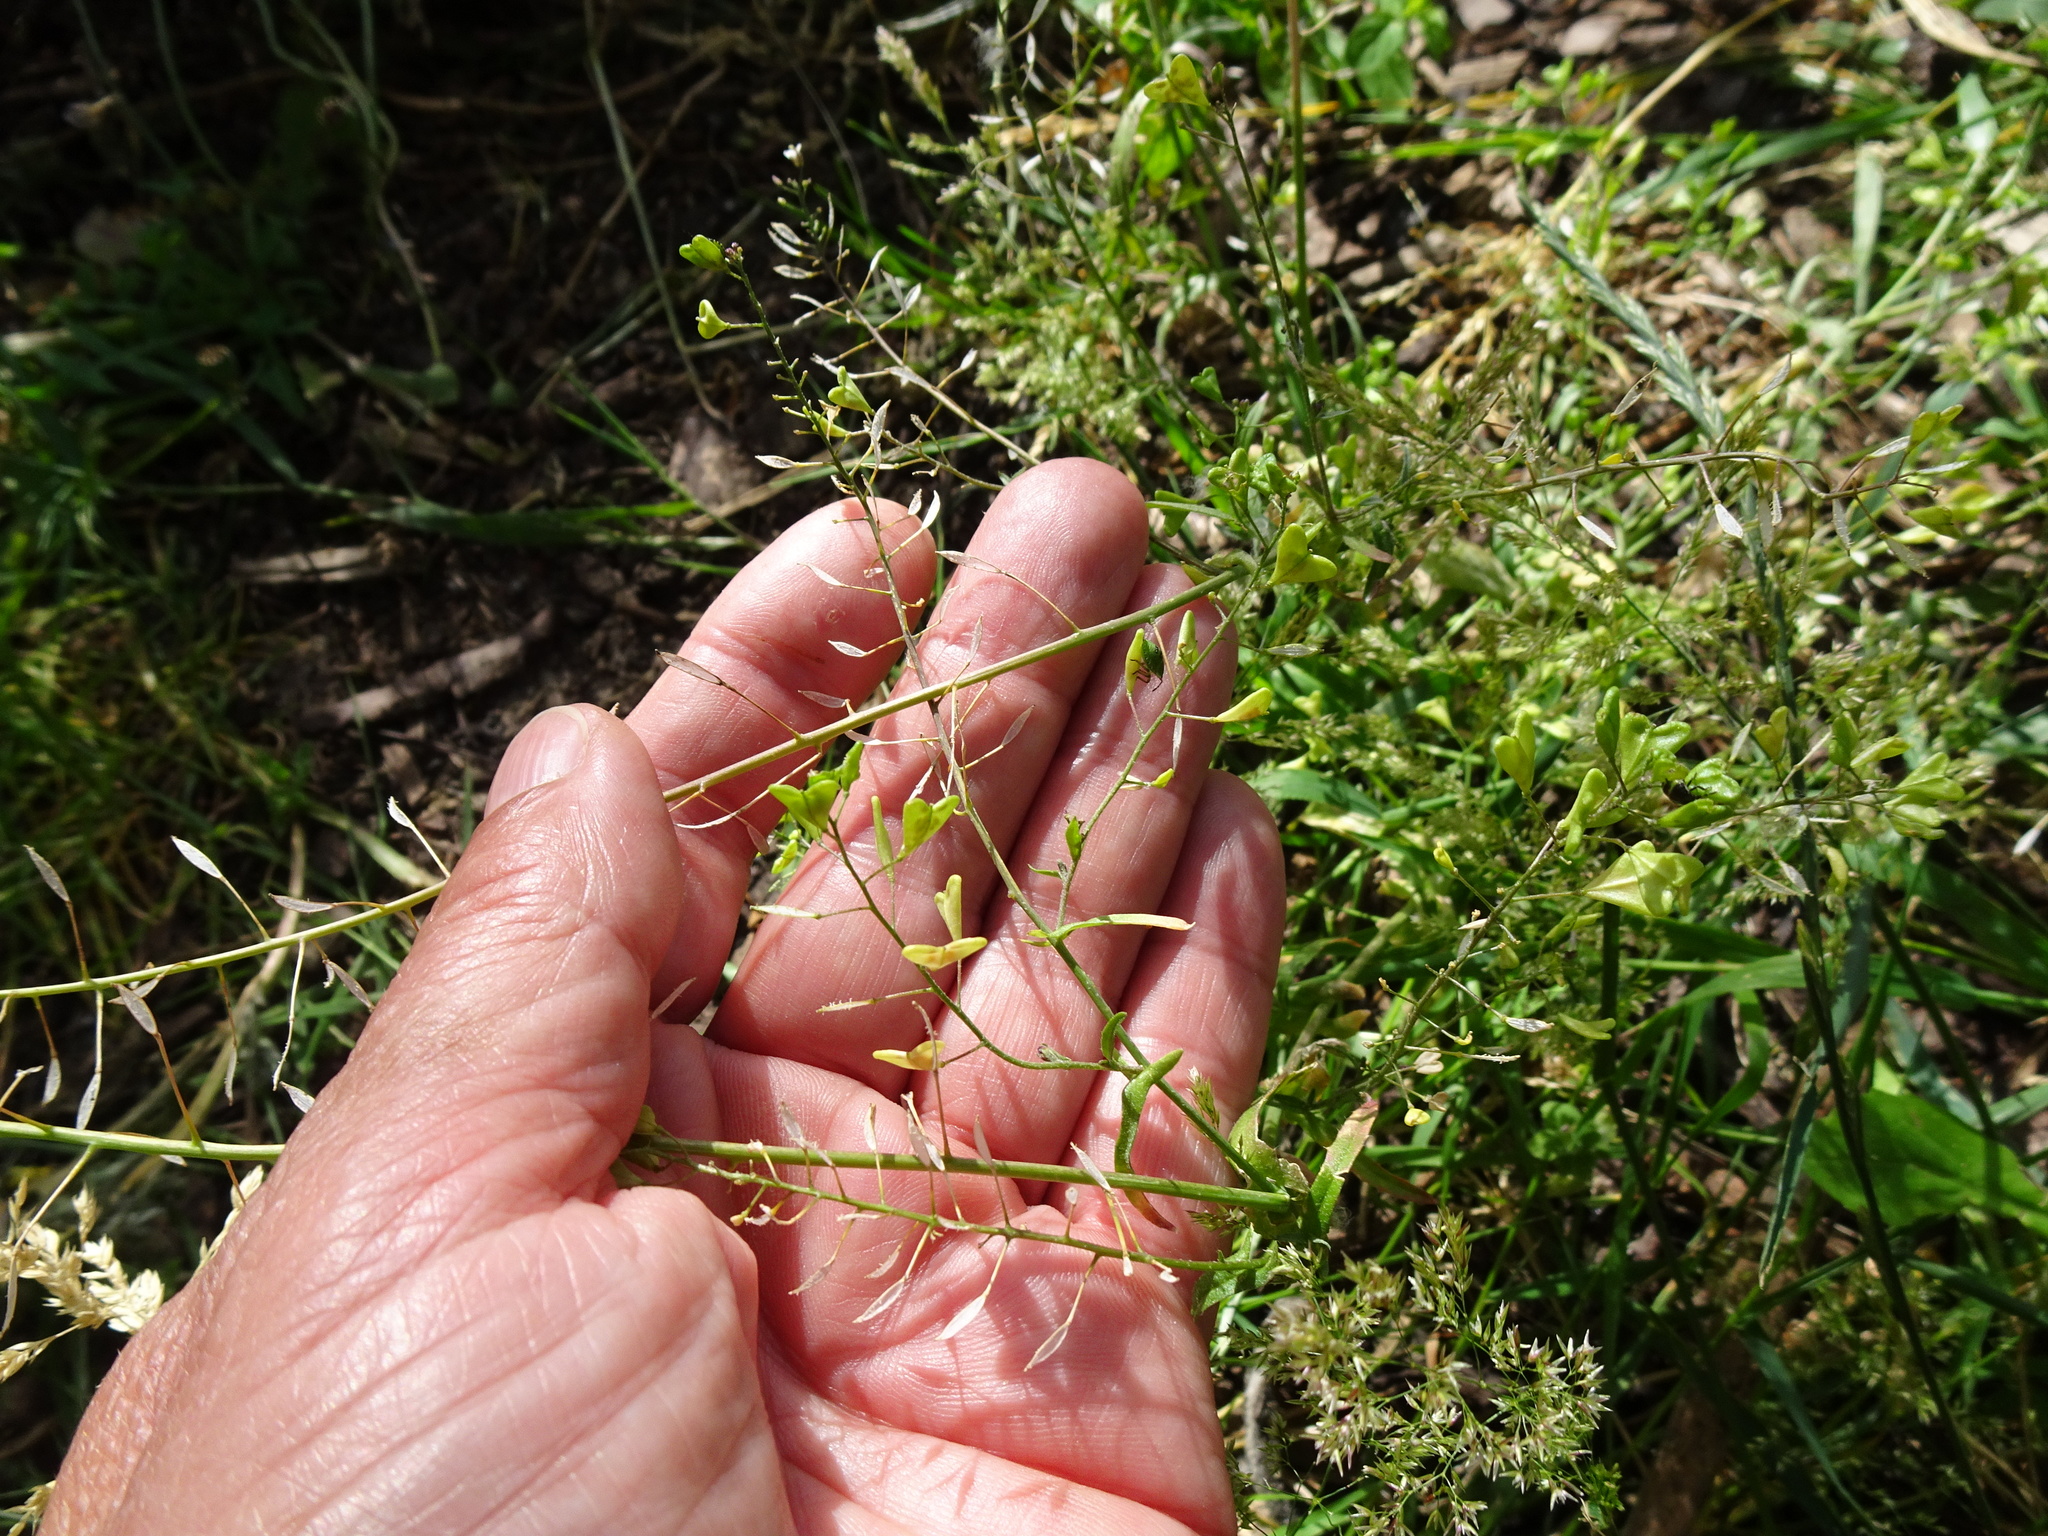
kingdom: Plantae
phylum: Tracheophyta
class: Magnoliopsida
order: Brassicales
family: Brassicaceae
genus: Capsella
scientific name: Capsella bursa-pastoris
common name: Shepherd's purse
